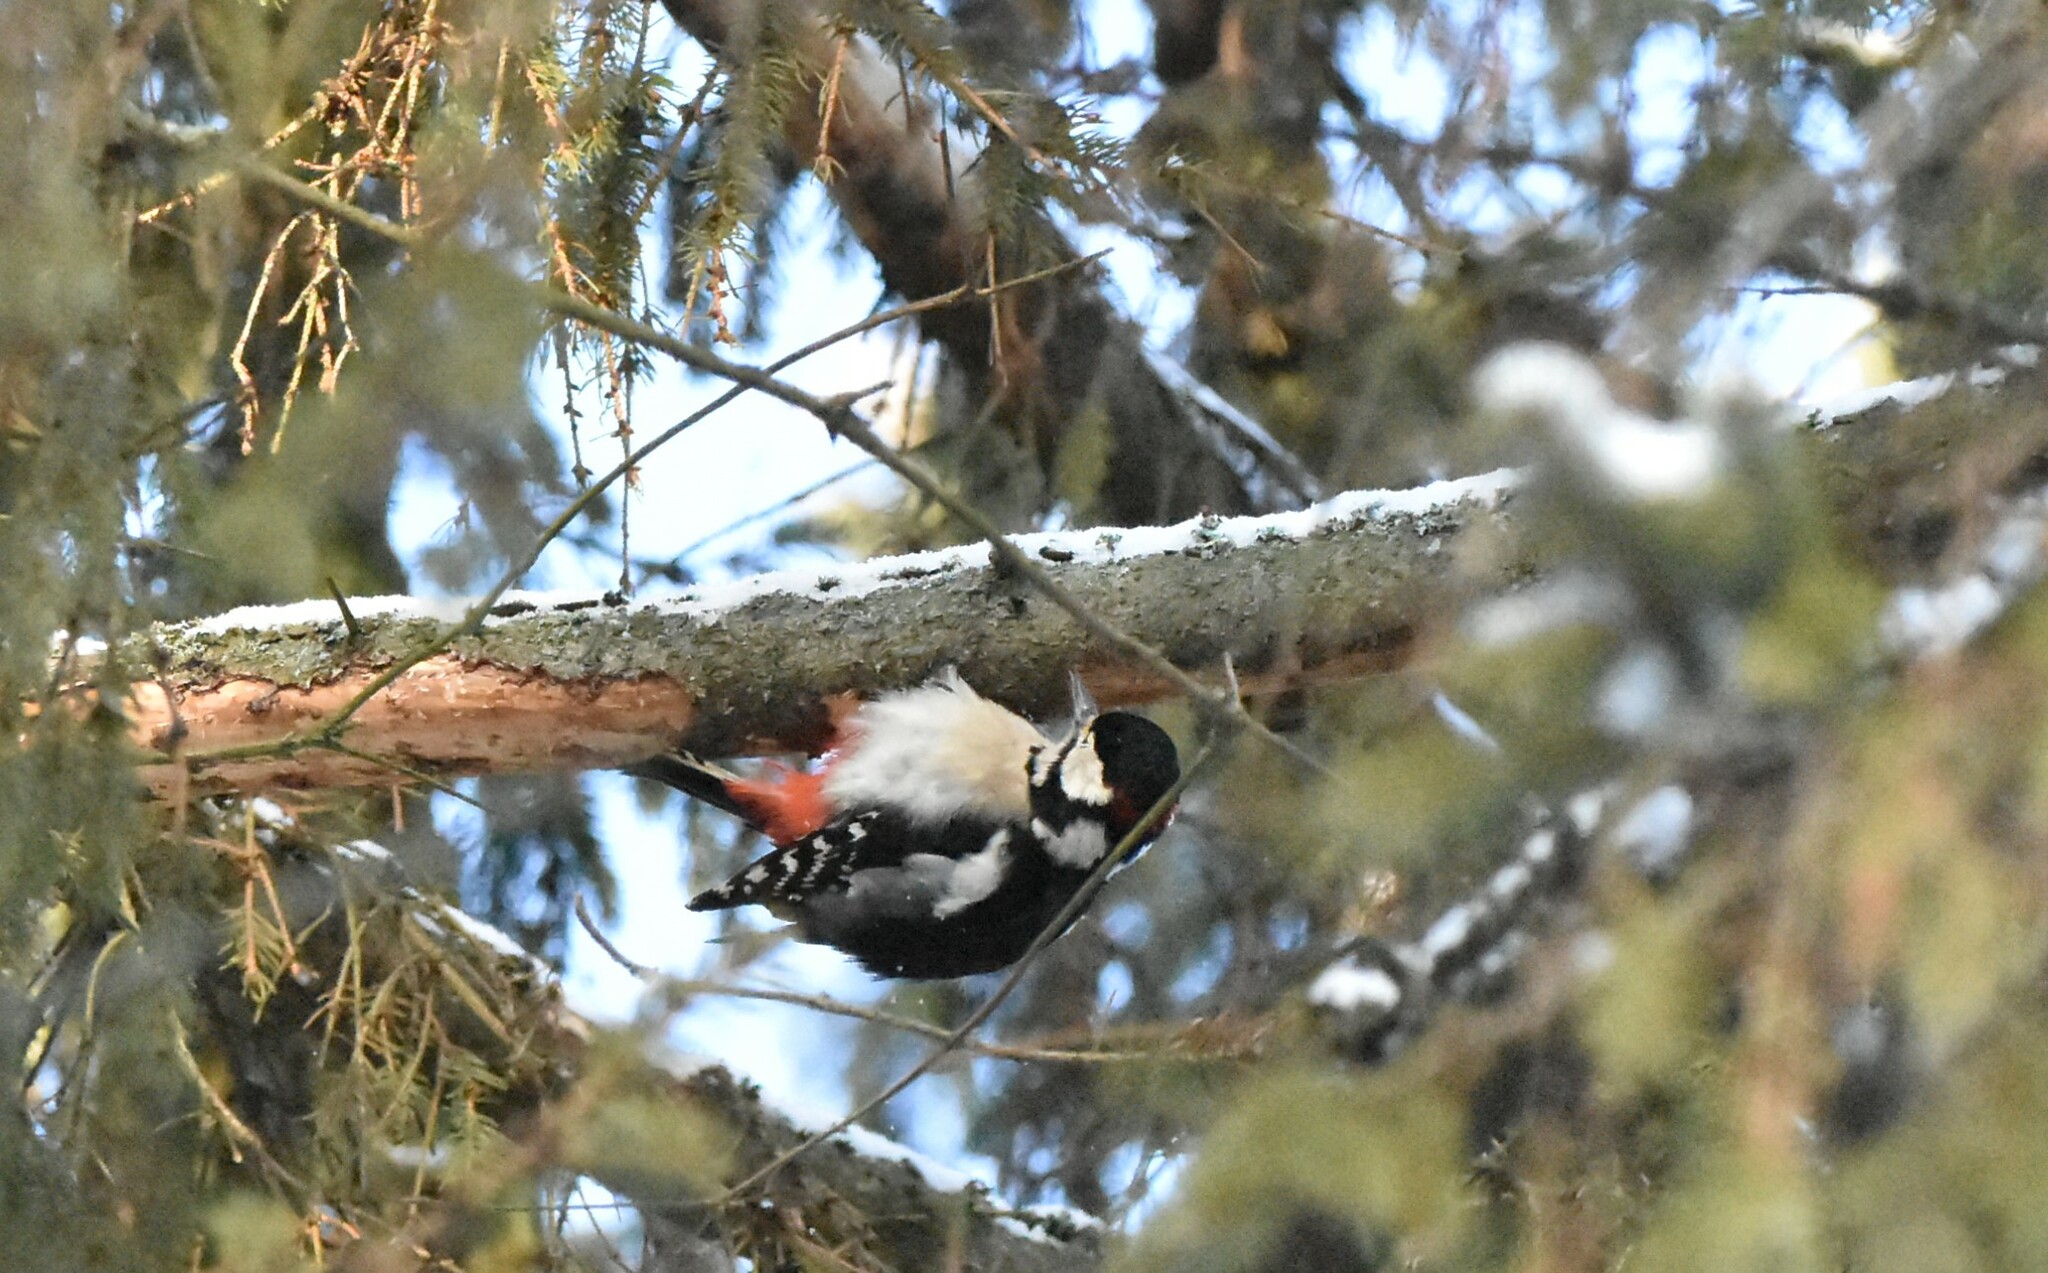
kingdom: Animalia
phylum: Chordata
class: Aves
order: Piciformes
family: Picidae
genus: Dendrocopos
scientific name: Dendrocopos major
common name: Great spotted woodpecker
